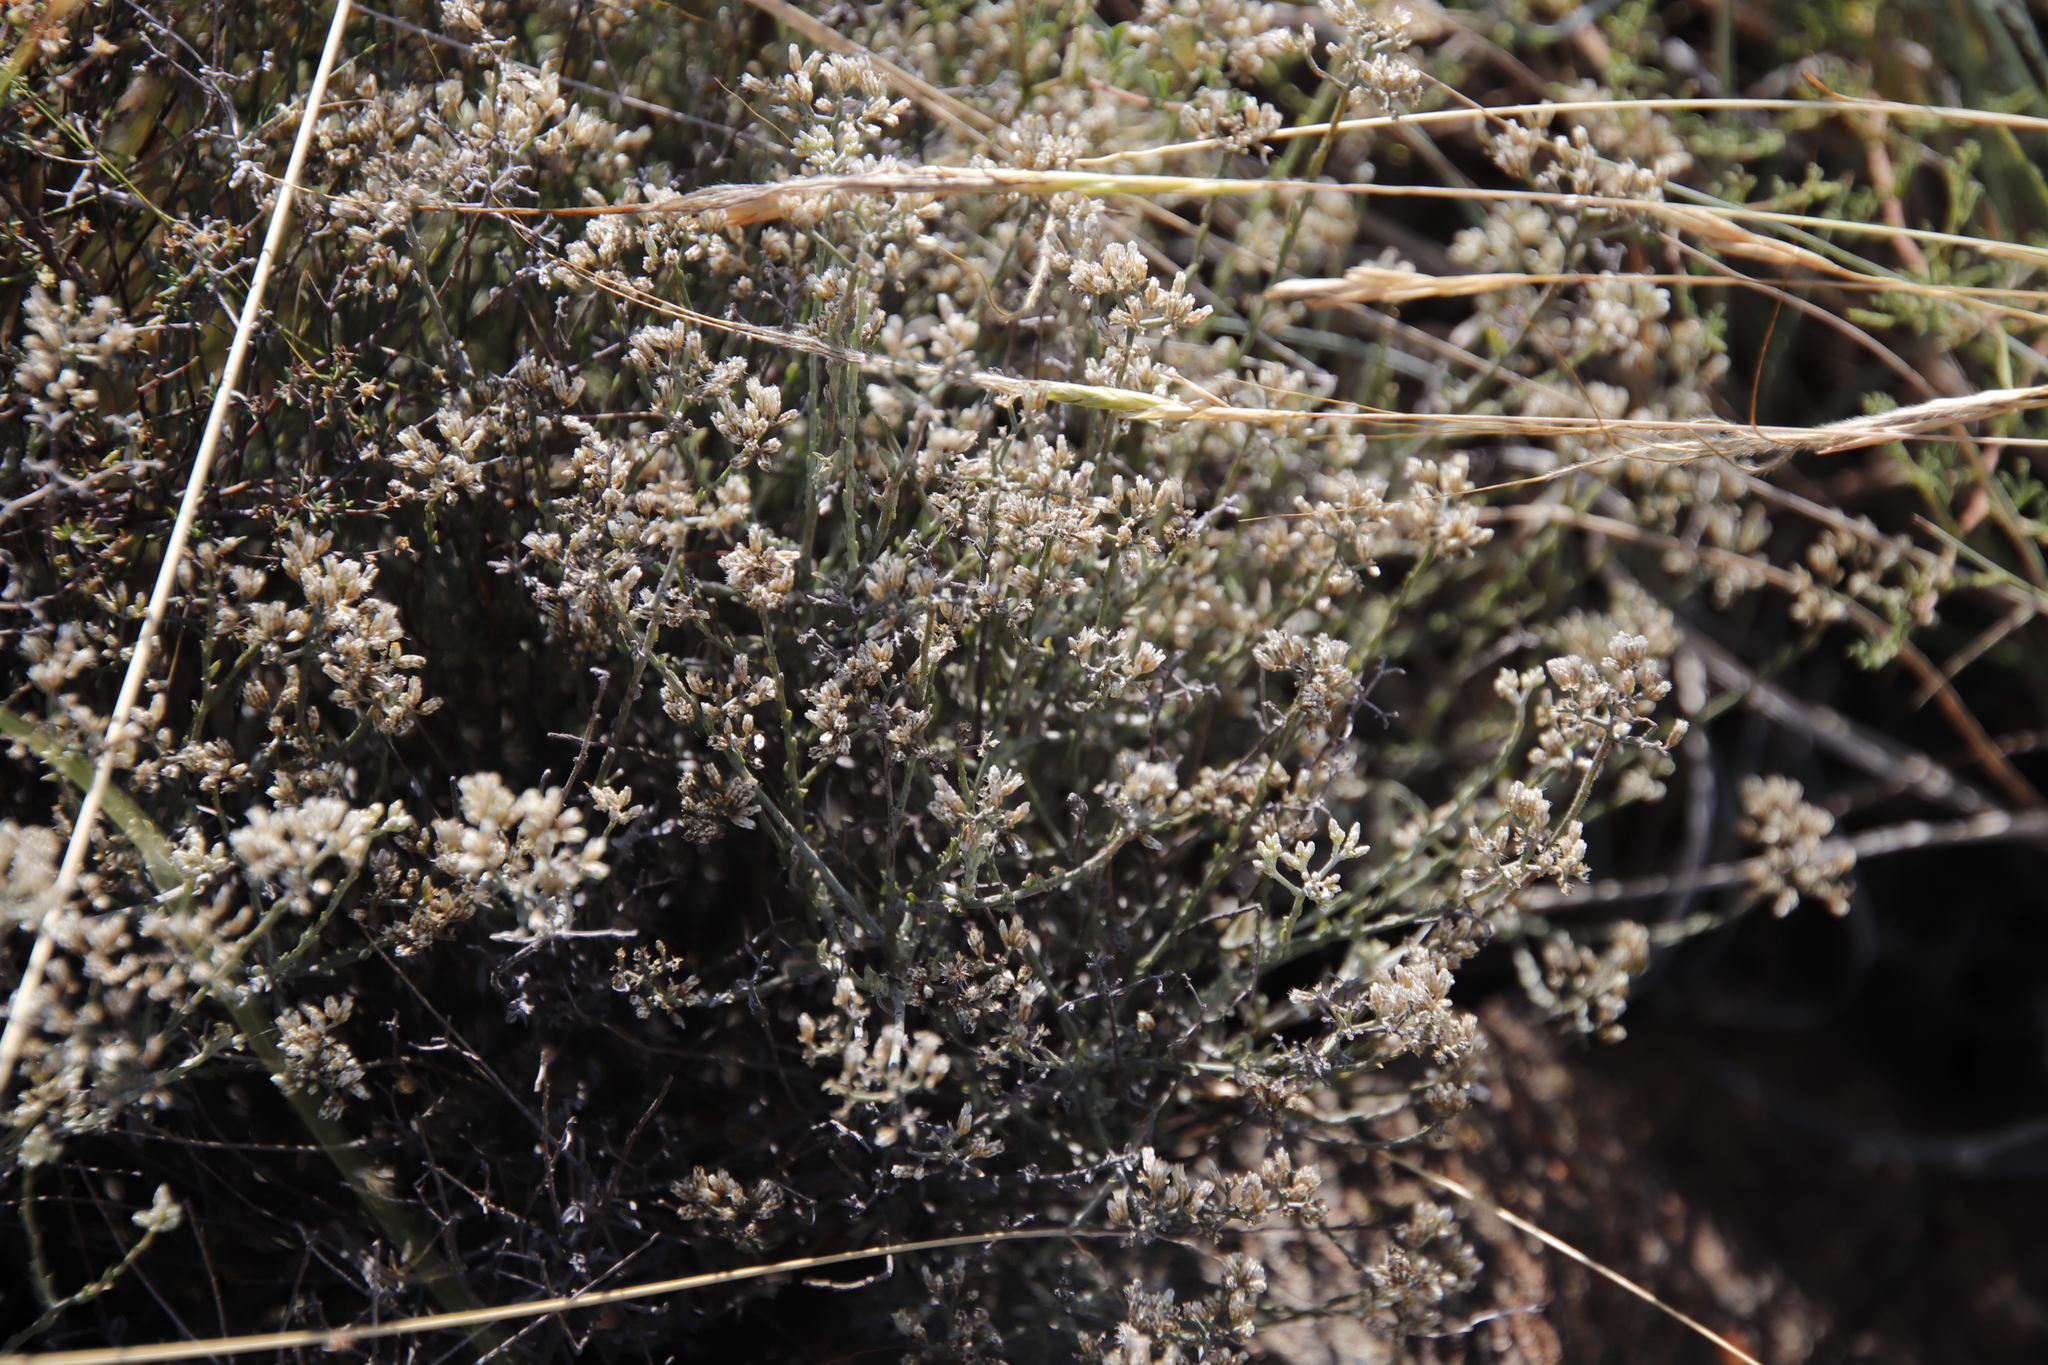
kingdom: Plantae
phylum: Tracheophyta
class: Magnoliopsida
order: Asterales
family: Asteraceae
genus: Helichrysum
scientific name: Helichrysum zeyheri
